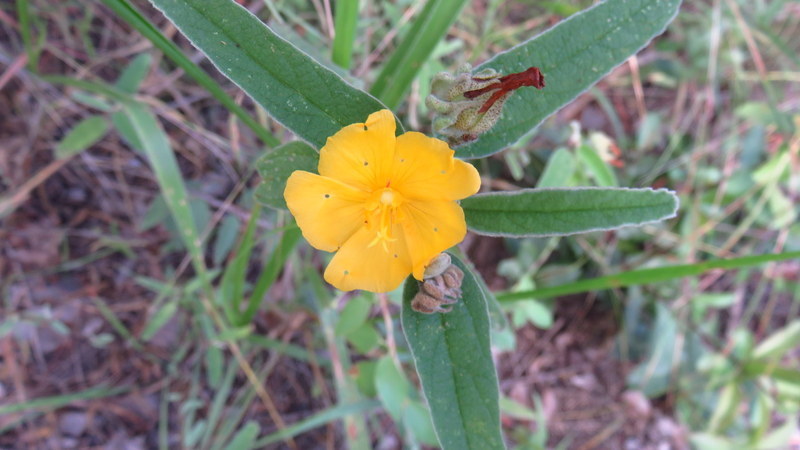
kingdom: Plantae
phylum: Tracheophyta
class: Magnoliopsida
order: Malvales
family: Malvaceae
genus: Melhania
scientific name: Melhania acuminata
